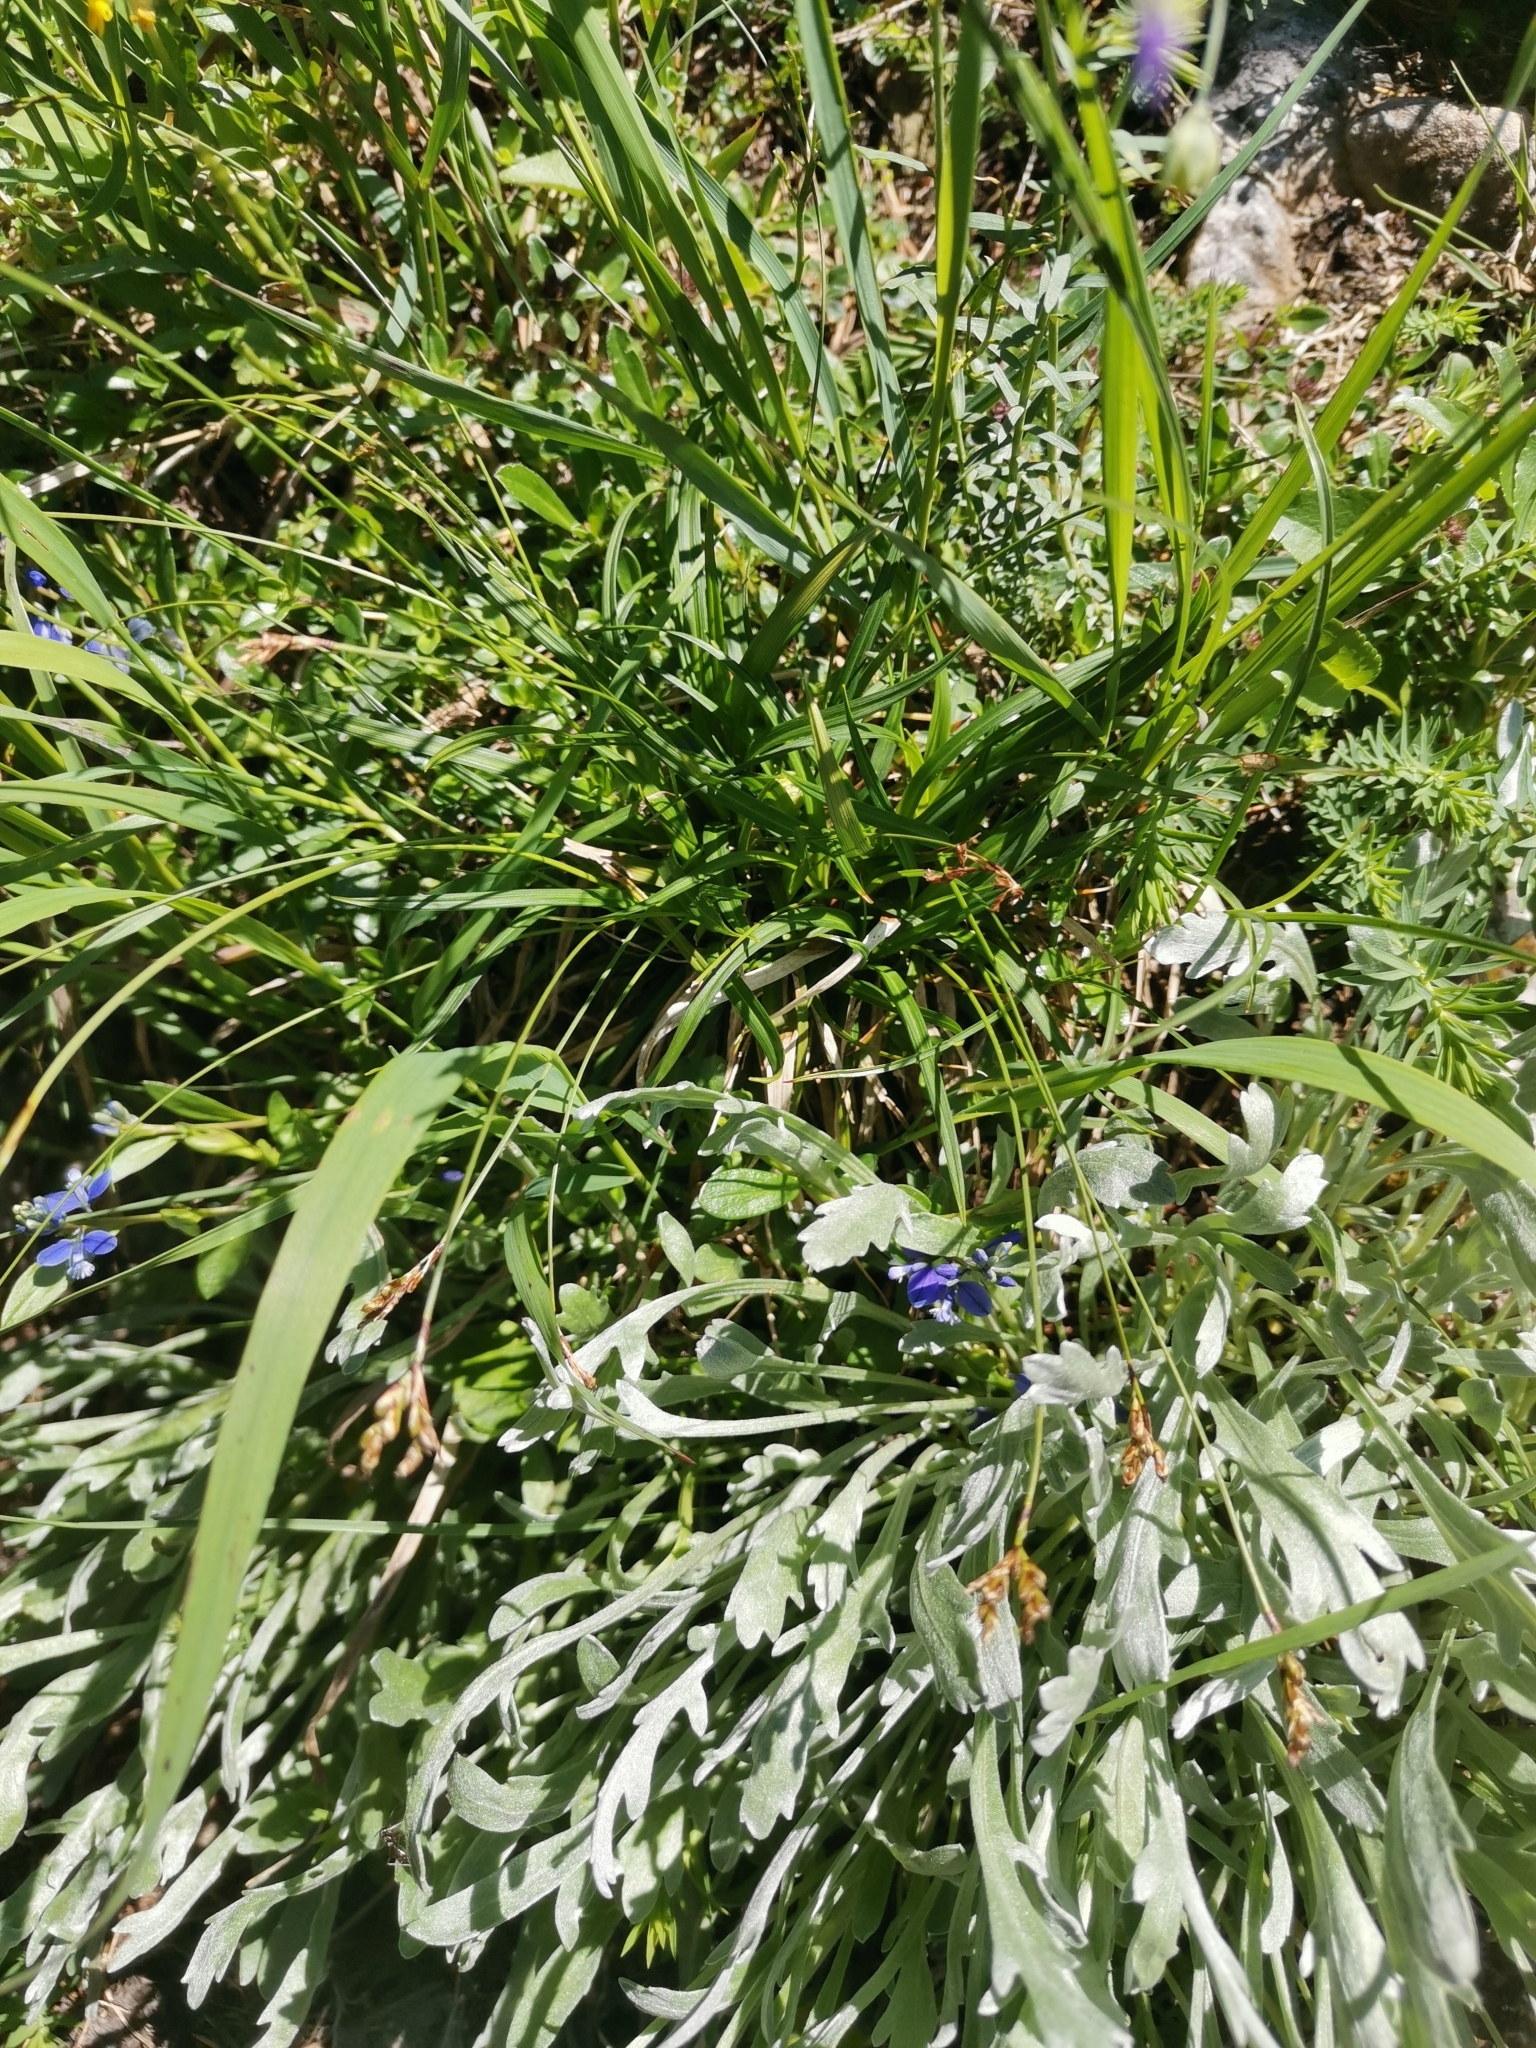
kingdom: Plantae
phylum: Tracheophyta
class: Liliopsida
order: Poales
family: Cyperaceae
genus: Carex
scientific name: Carex ornithopoda
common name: Bird's-foot sedge
